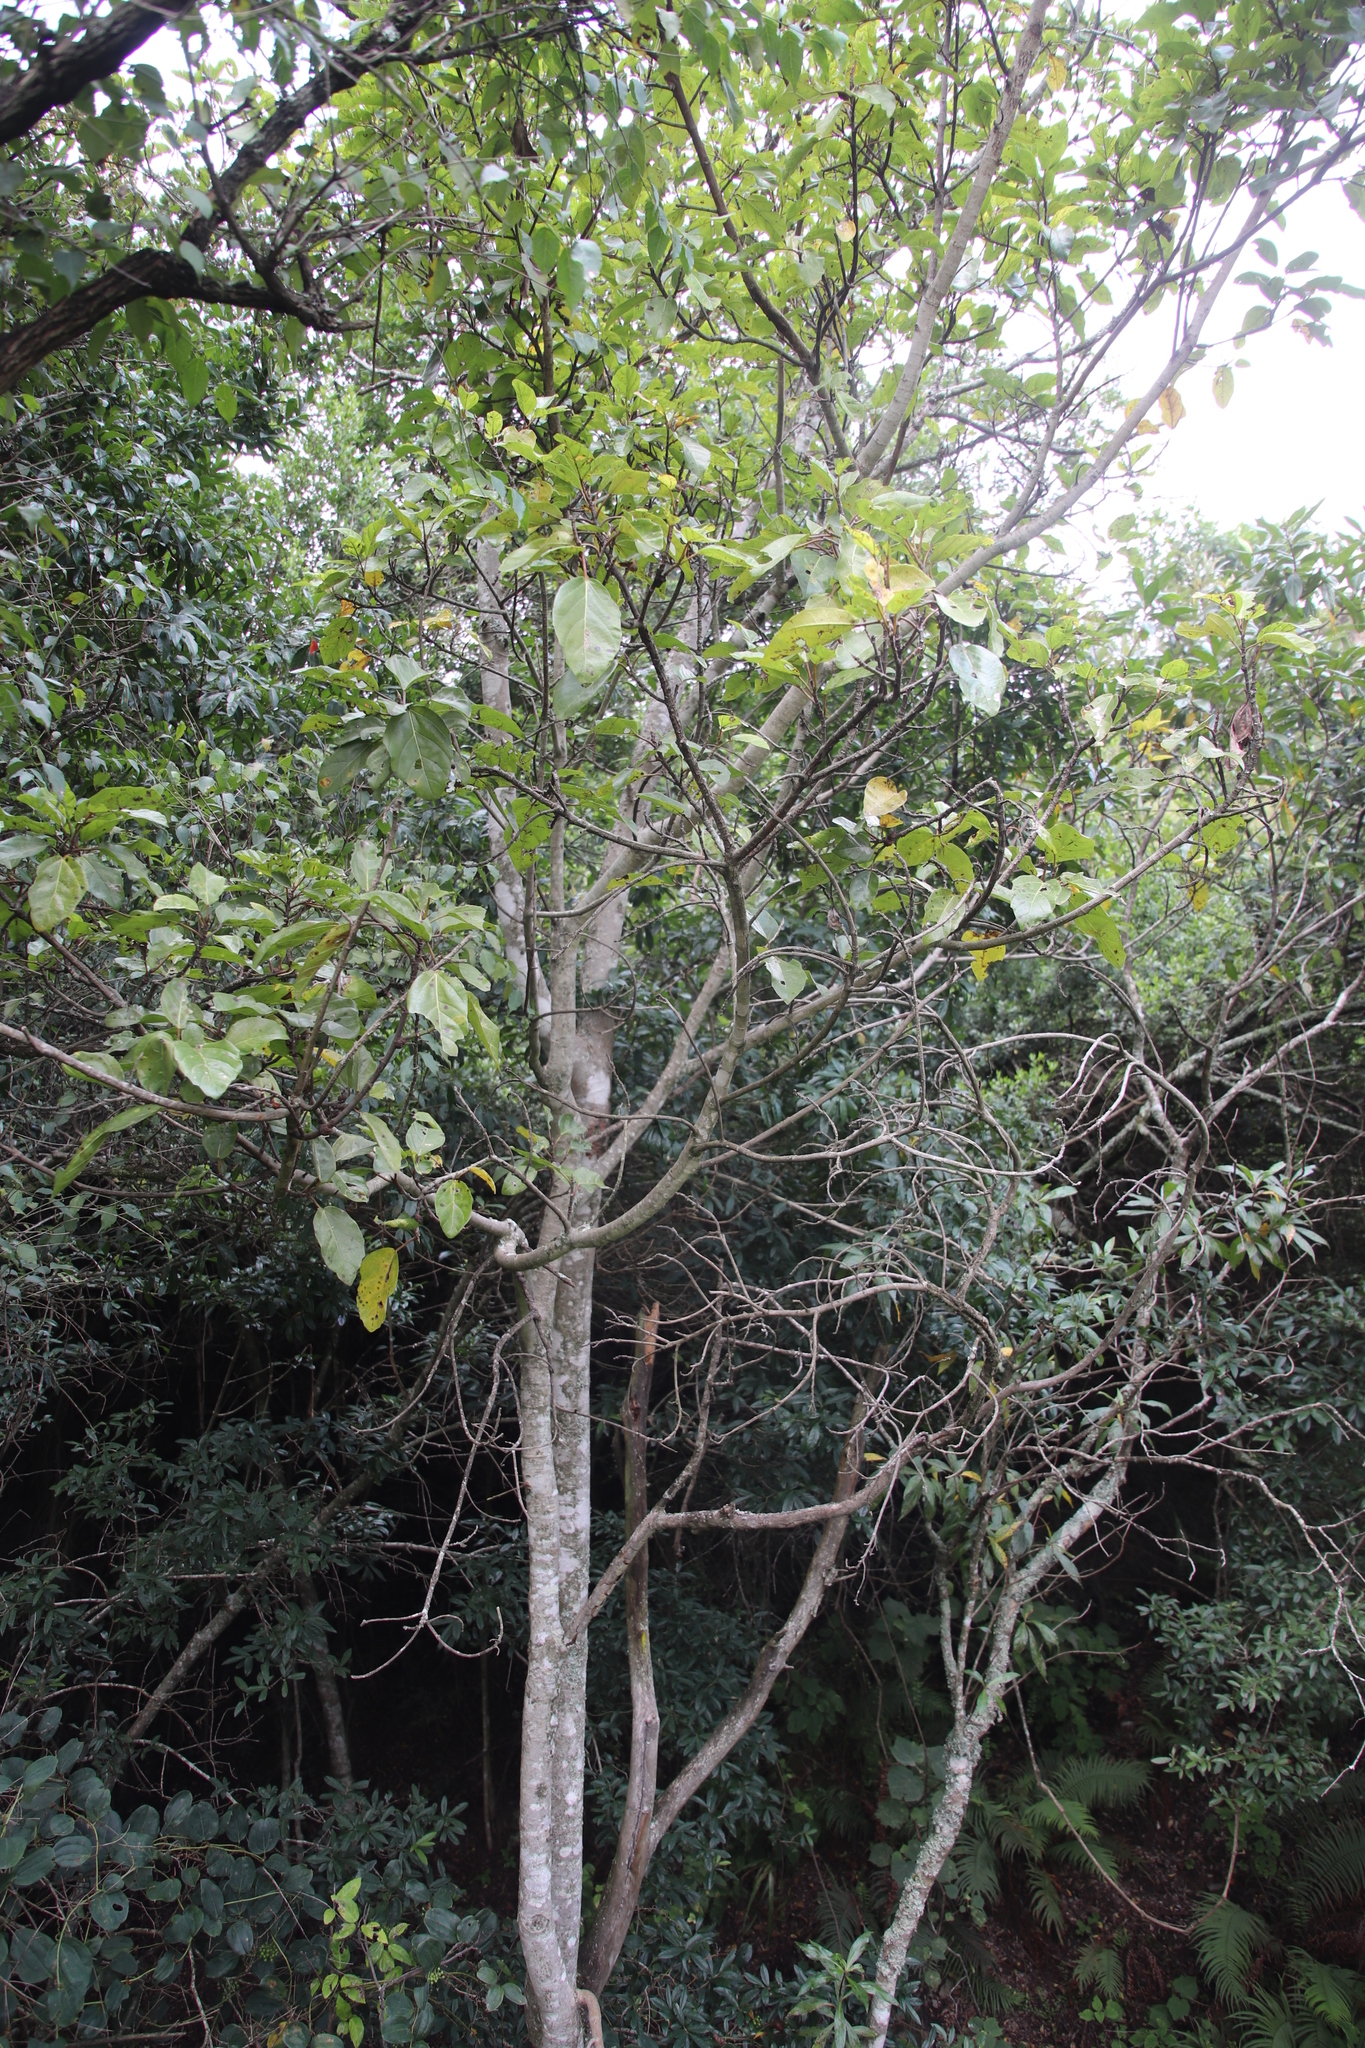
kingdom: Plantae
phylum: Tracheophyta
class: Magnoliopsida
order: Rosales
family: Moraceae
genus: Ficus
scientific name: Ficus sur
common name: Cape fig
